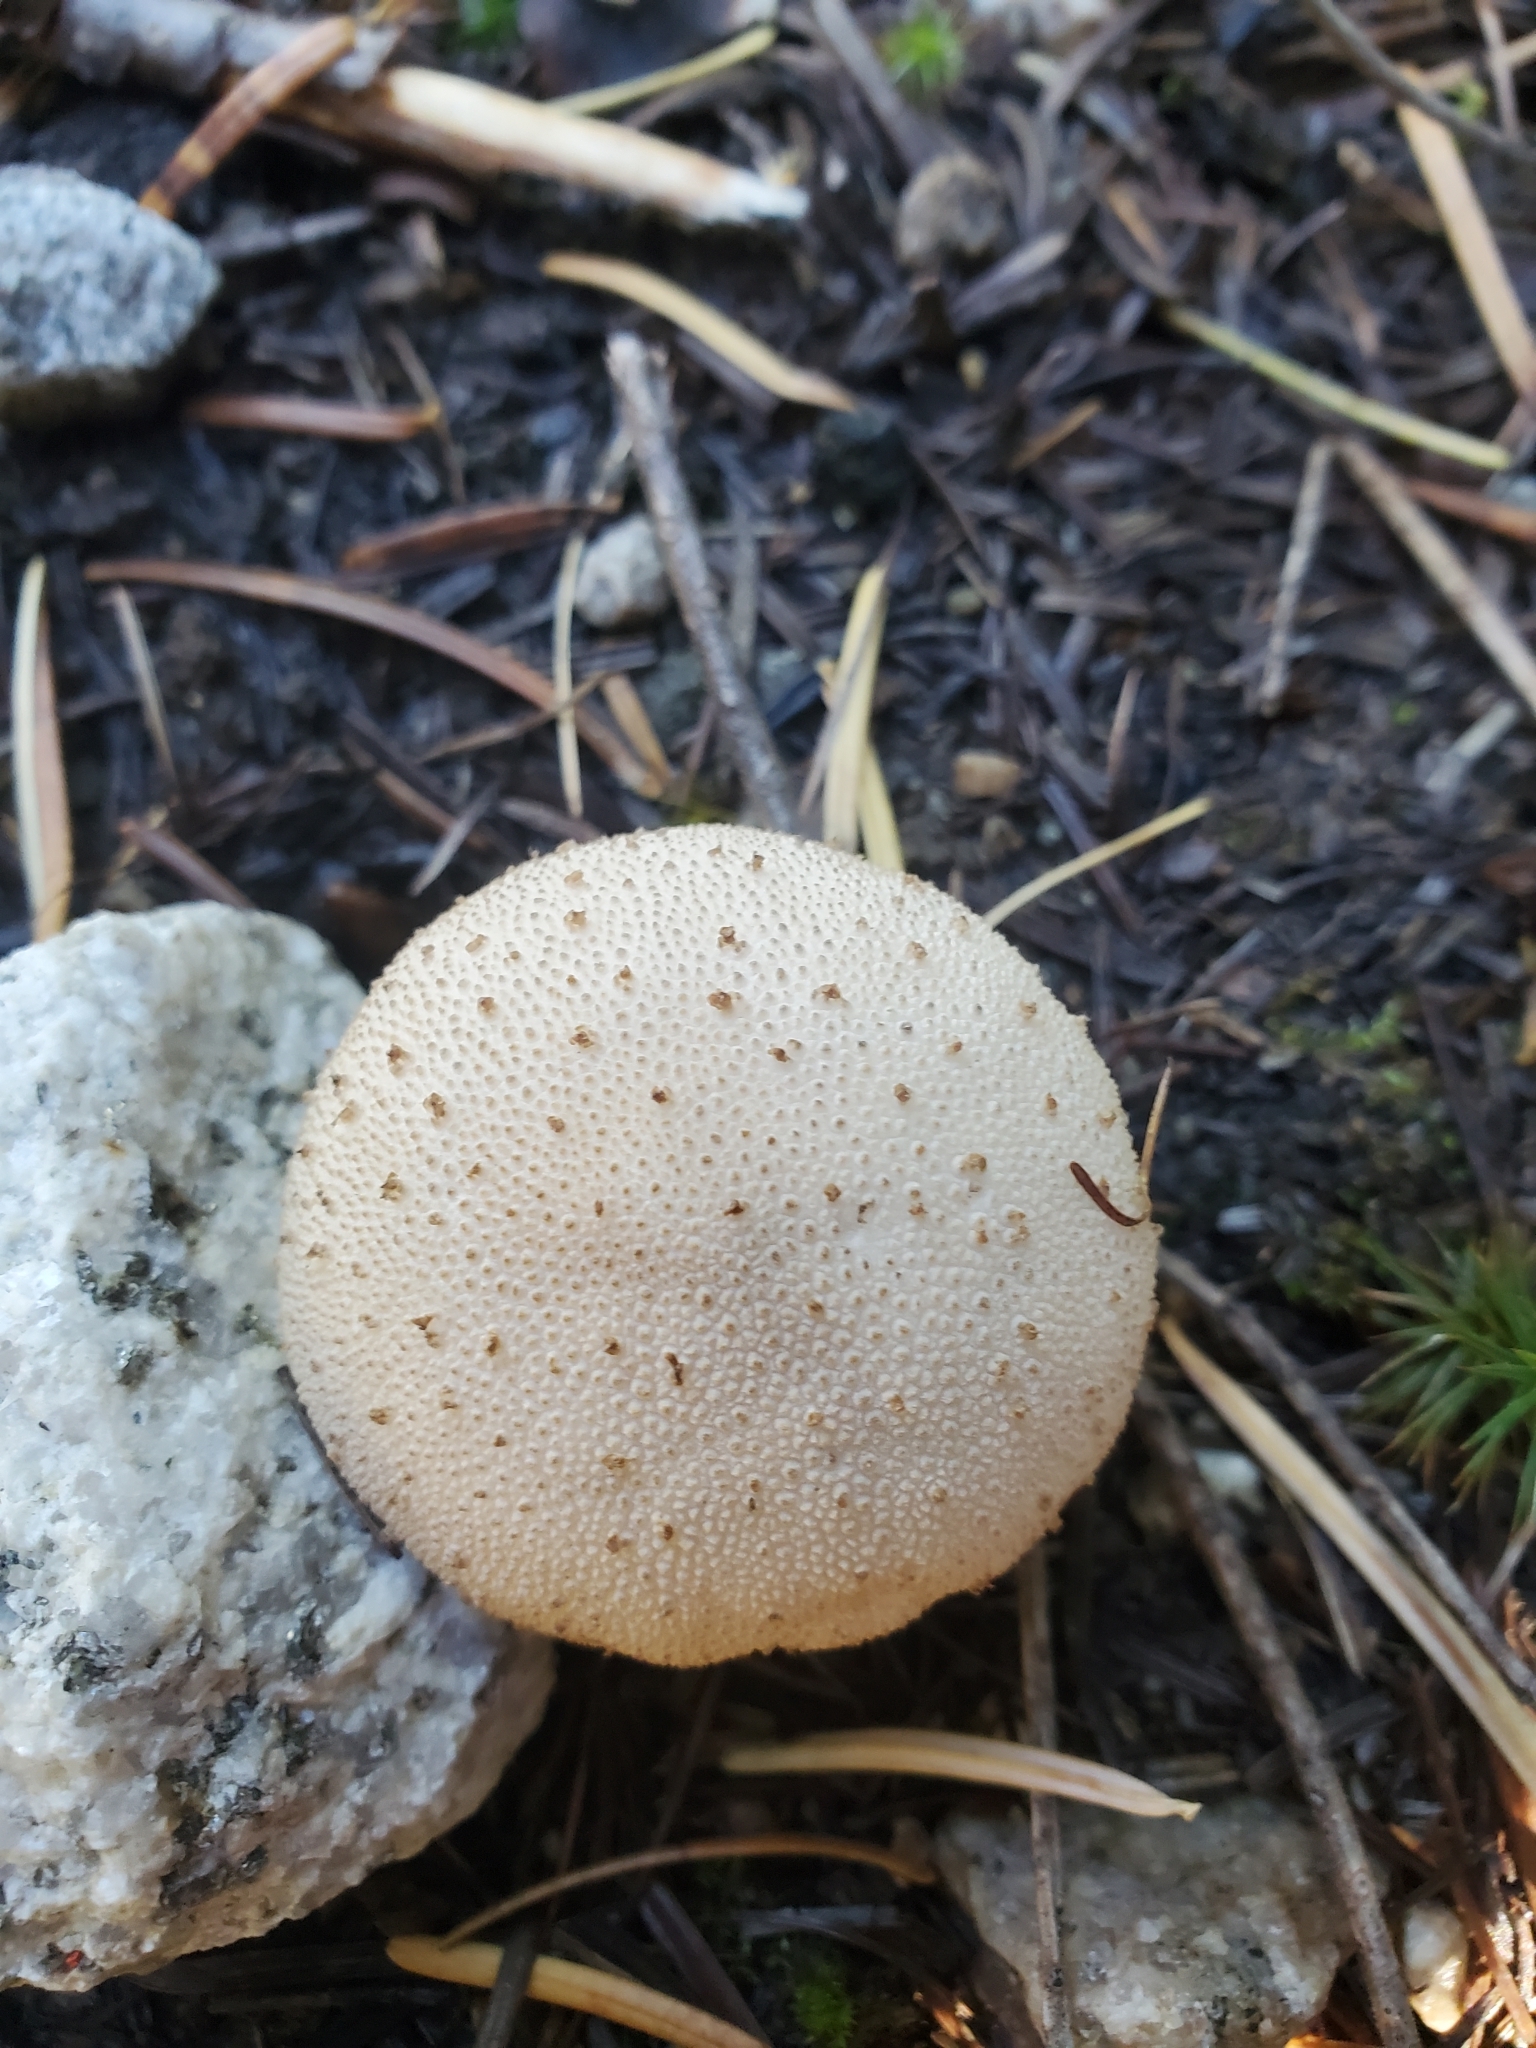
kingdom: Fungi
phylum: Basidiomycota
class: Agaricomycetes
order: Agaricales
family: Lycoperdaceae
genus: Lycoperdon
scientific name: Lycoperdon perlatum
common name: Common puffball
